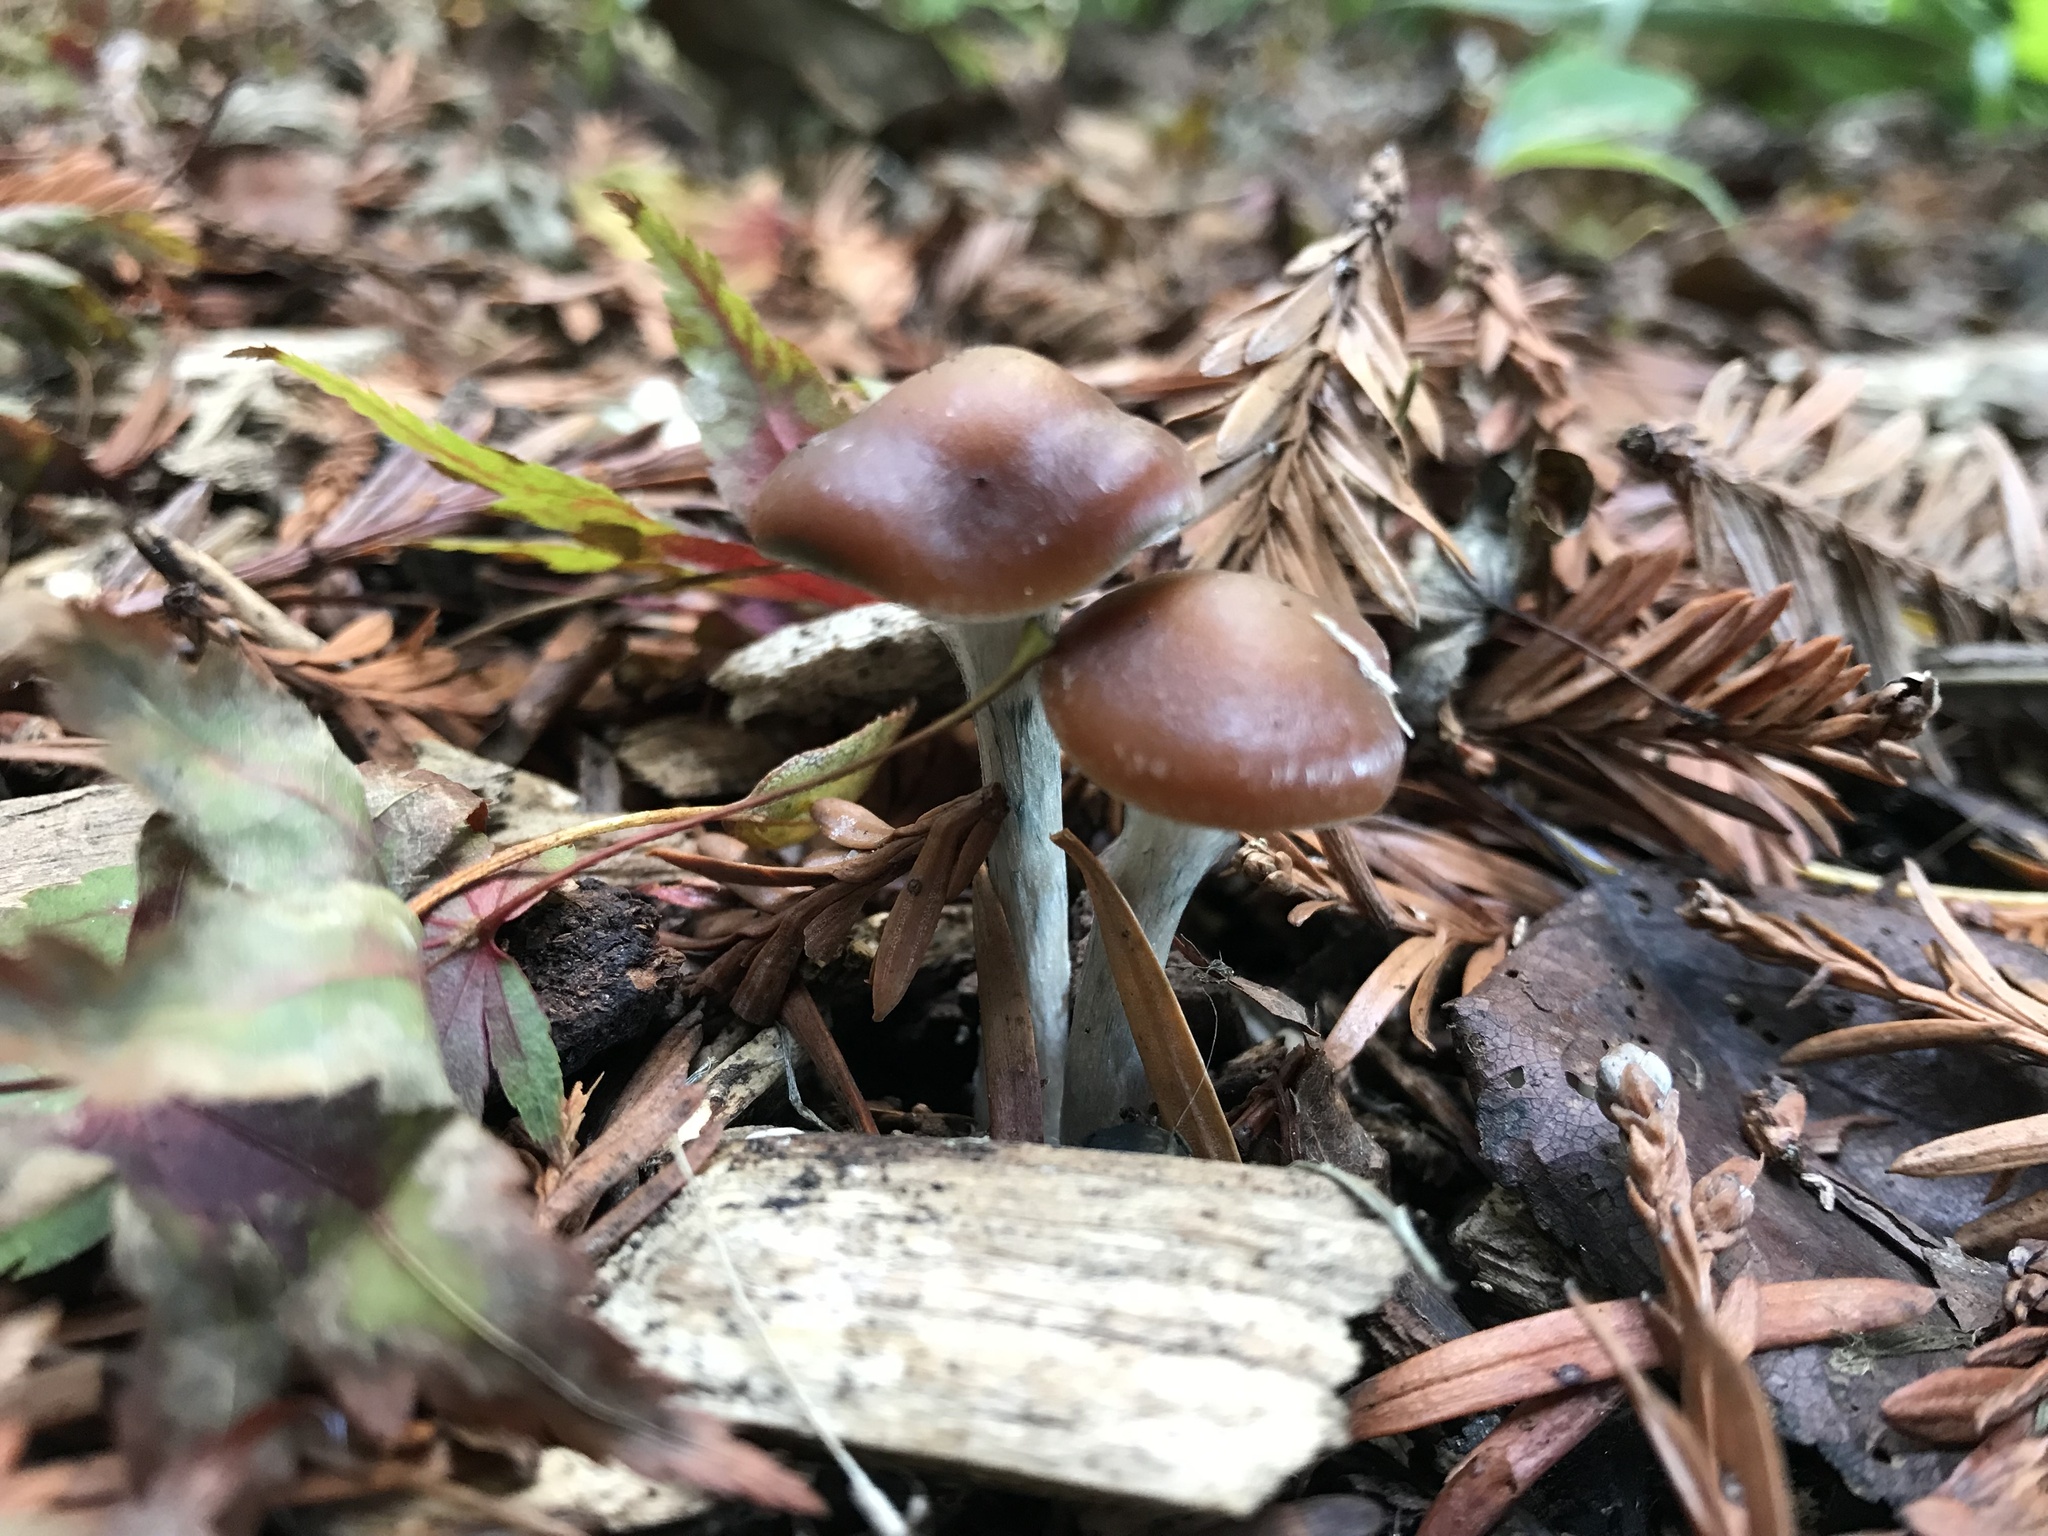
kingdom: Fungi
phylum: Basidiomycota
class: Agaricomycetes
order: Agaricales
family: Hymenogastraceae
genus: Psilocybe
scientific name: Psilocybe cyanescens
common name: Blueleg brownie
